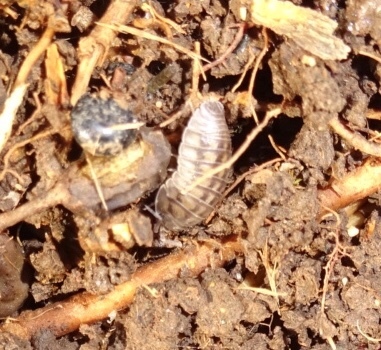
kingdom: Animalia
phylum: Arthropoda
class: Malacostraca
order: Isopoda
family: Armadillidiidae
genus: Armadillidium
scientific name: Armadillidium nasatum
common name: Isopod
